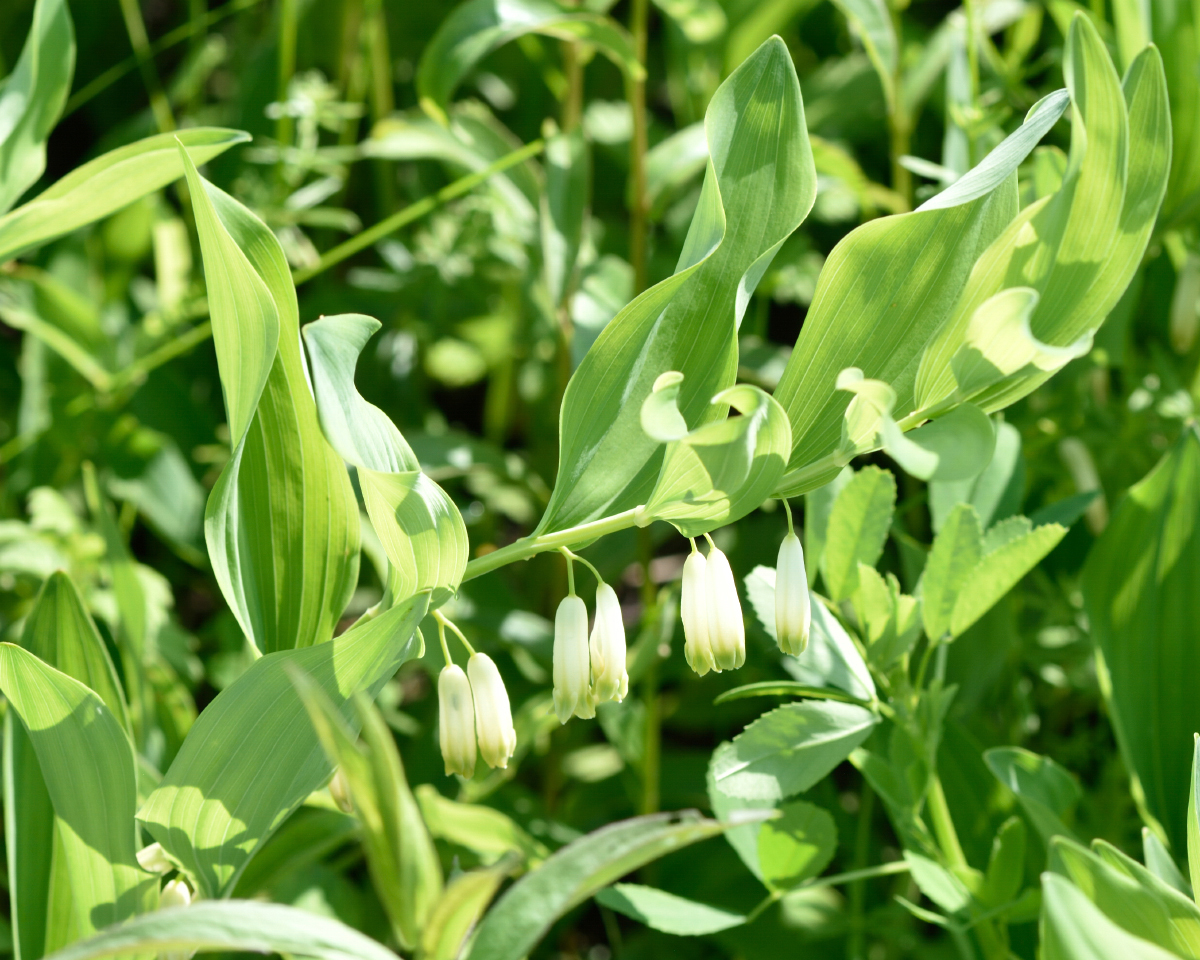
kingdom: Plantae
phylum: Tracheophyta
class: Liliopsida
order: Asparagales
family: Asparagaceae
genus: Polygonatum
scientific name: Polygonatum odoratum
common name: Angular solomon's-seal
